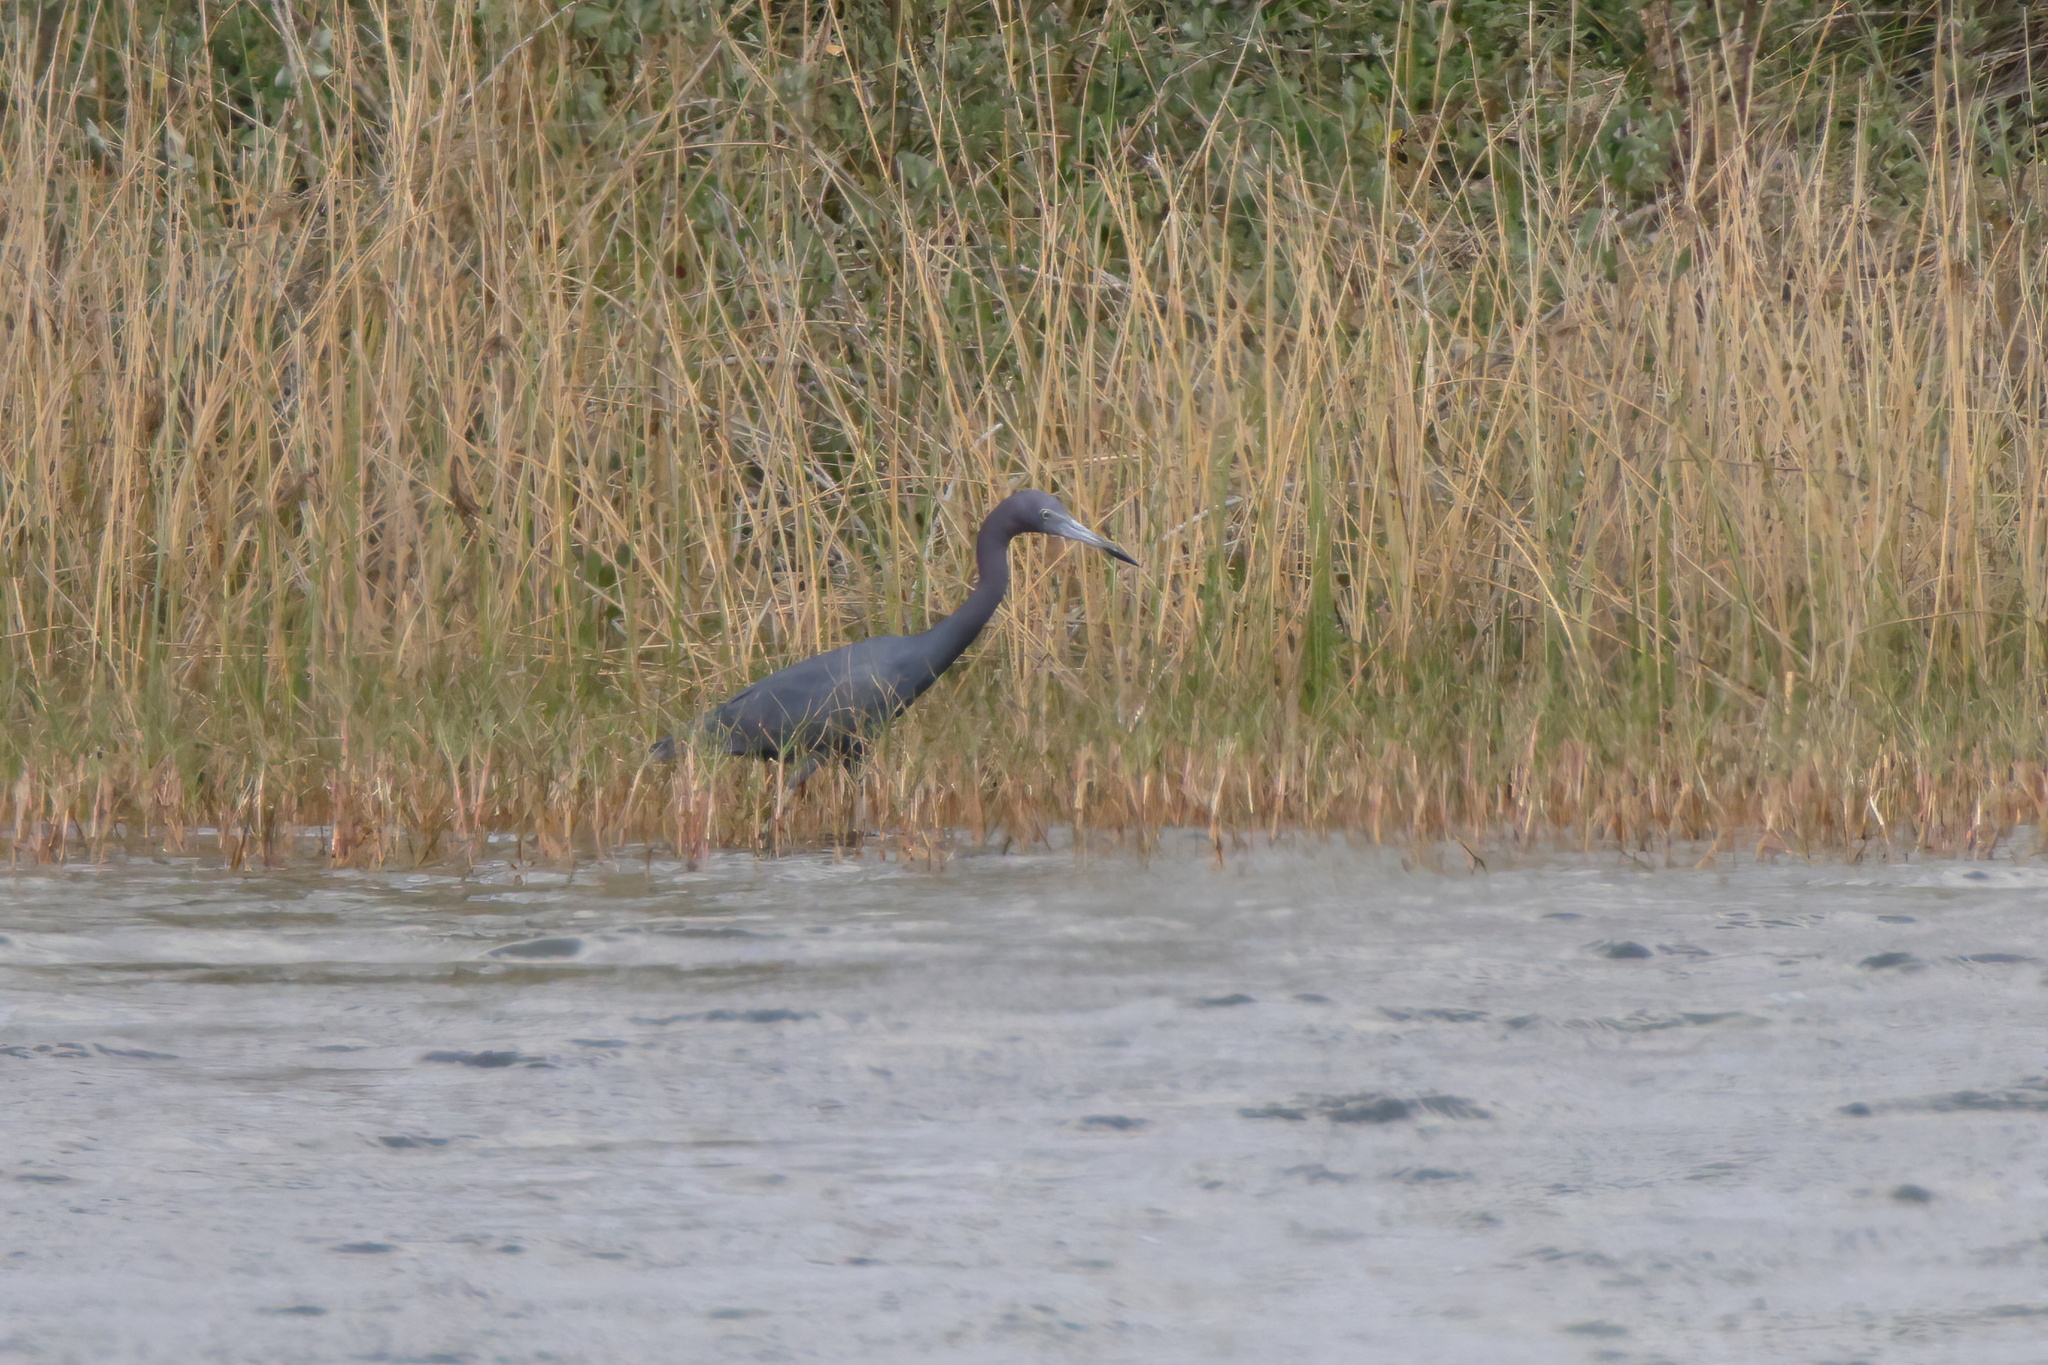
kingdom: Animalia
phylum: Chordata
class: Aves
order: Pelecaniformes
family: Ardeidae
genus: Egretta
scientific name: Egretta caerulea
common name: Little blue heron
